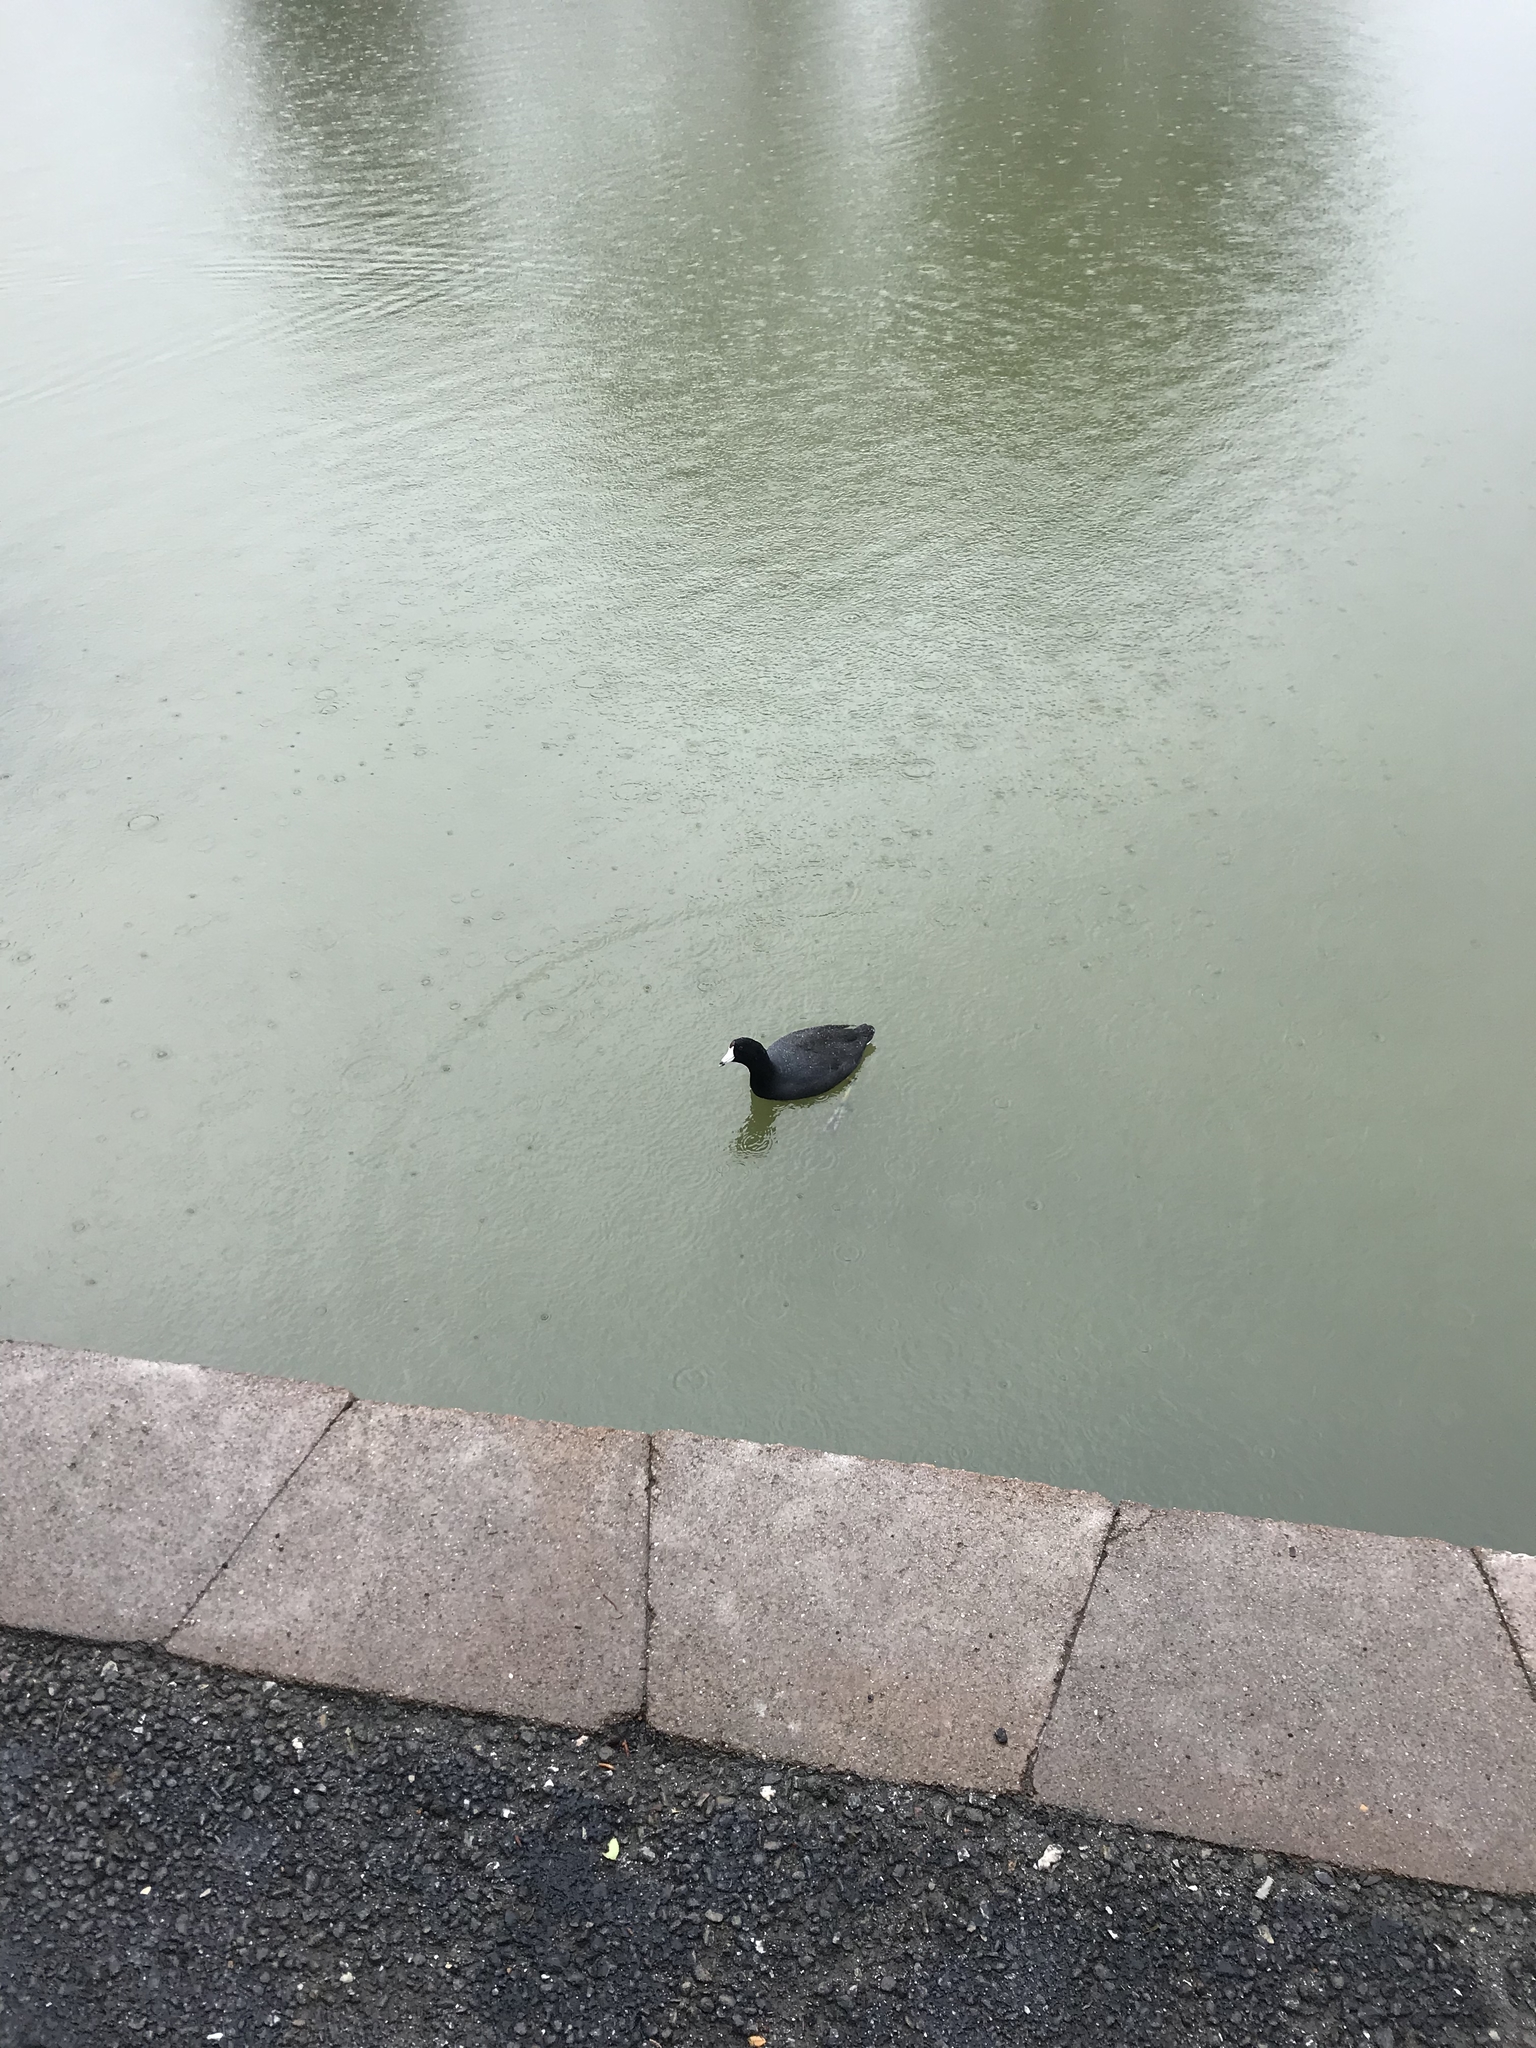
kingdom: Animalia
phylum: Chordata
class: Aves
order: Gruiformes
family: Rallidae
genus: Fulica
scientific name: Fulica americana
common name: American coot
